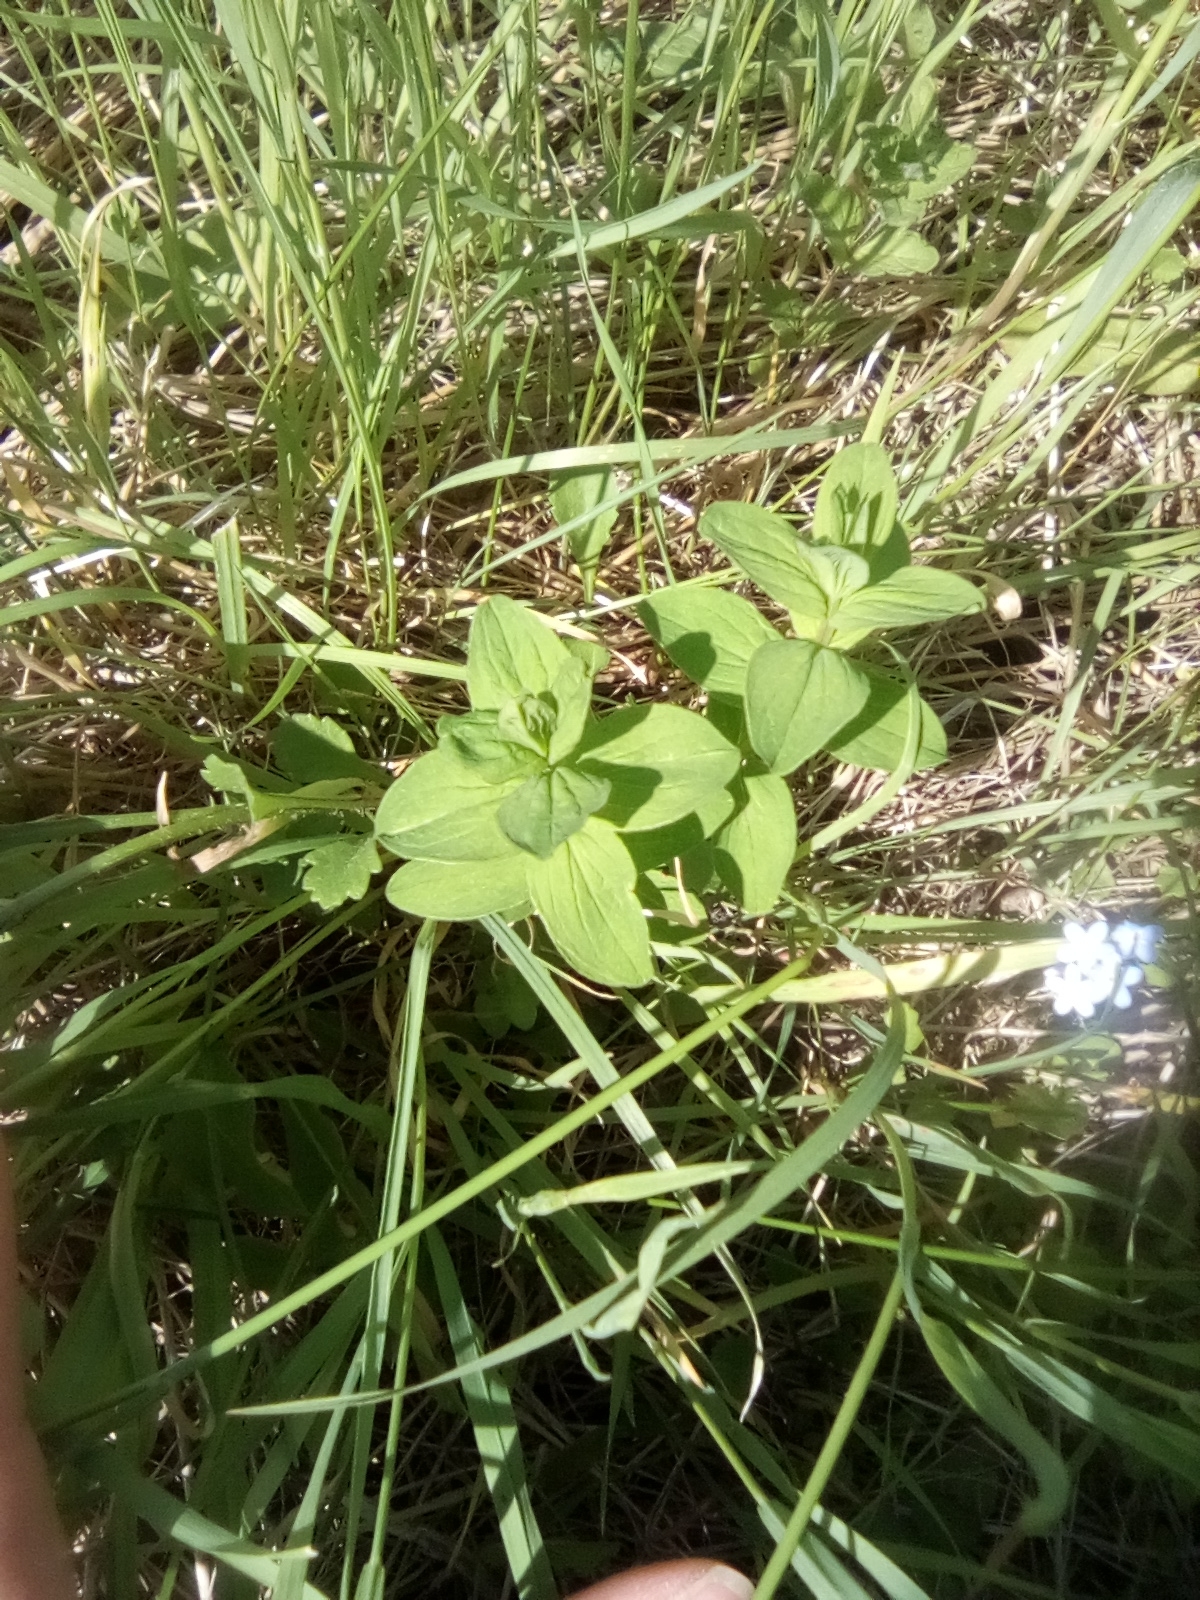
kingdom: Plantae
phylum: Tracheophyta
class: Magnoliopsida
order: Malpighiales
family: Hypericaceae
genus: Hypericum
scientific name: Hypericum maculatum
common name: Imperforate st. john's-wort
